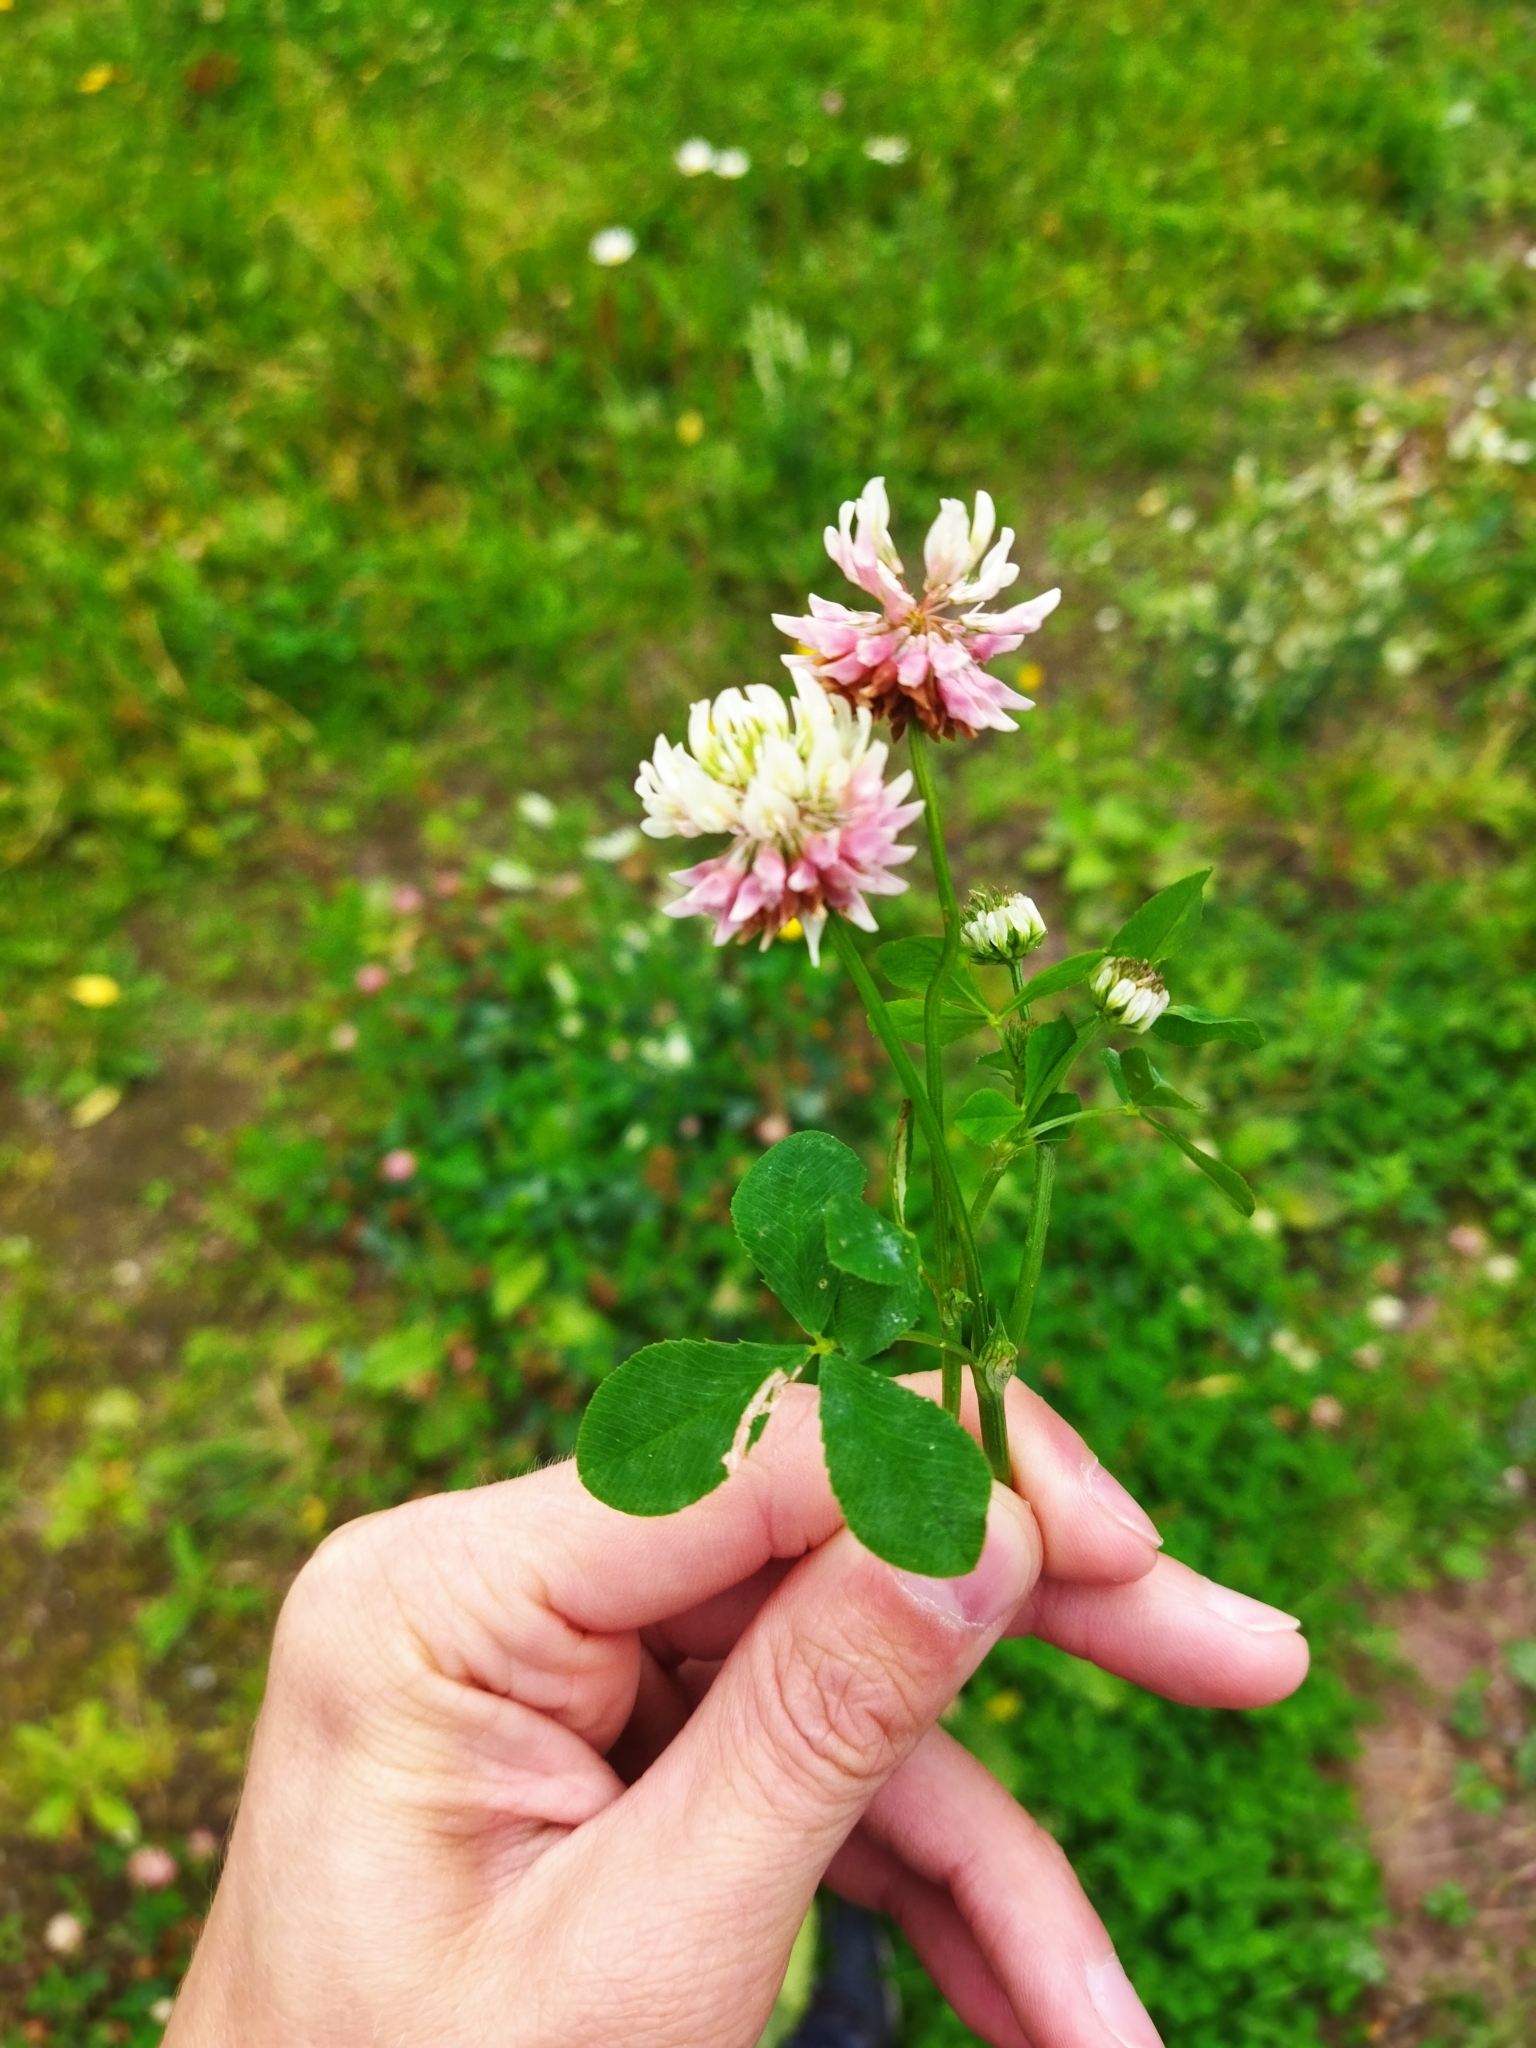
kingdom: Plantae
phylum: Tracheophyta
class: Magnoliopsida
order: Fabales
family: Fabaceae
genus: Trifolium
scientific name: Trifolium hybridum
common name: Alsike clover
